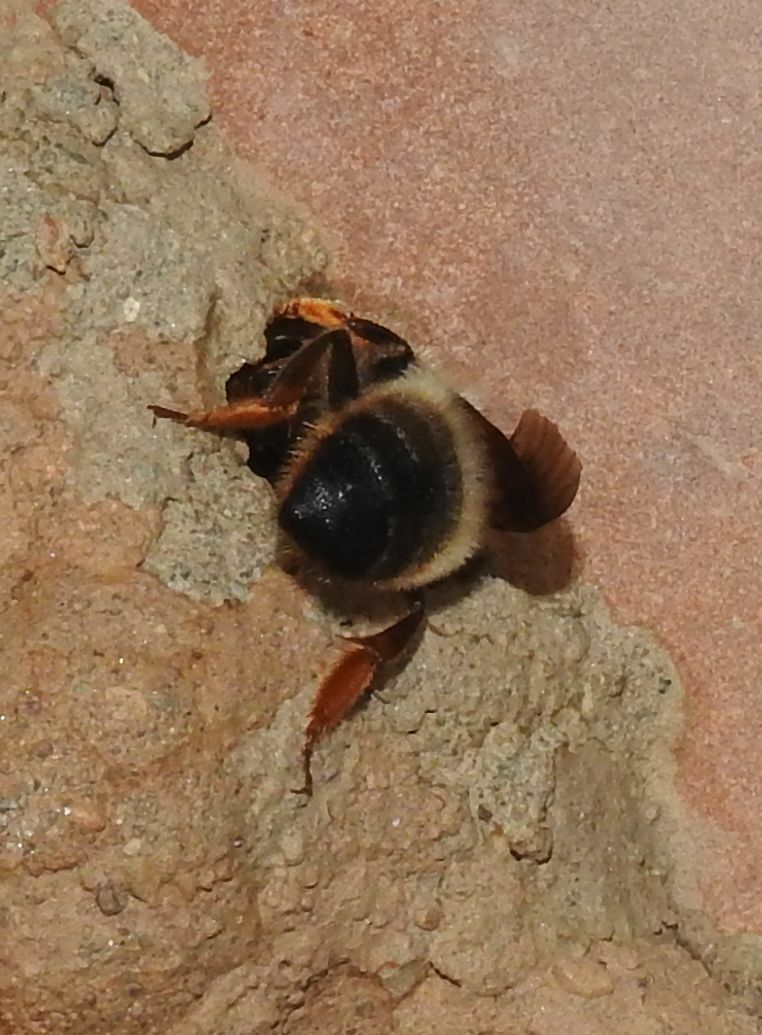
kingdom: Animalia
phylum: Arthropoda
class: Insecta
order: Hymenoptera
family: Megachilidae
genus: Megachile
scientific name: Megachile pyrenaica
